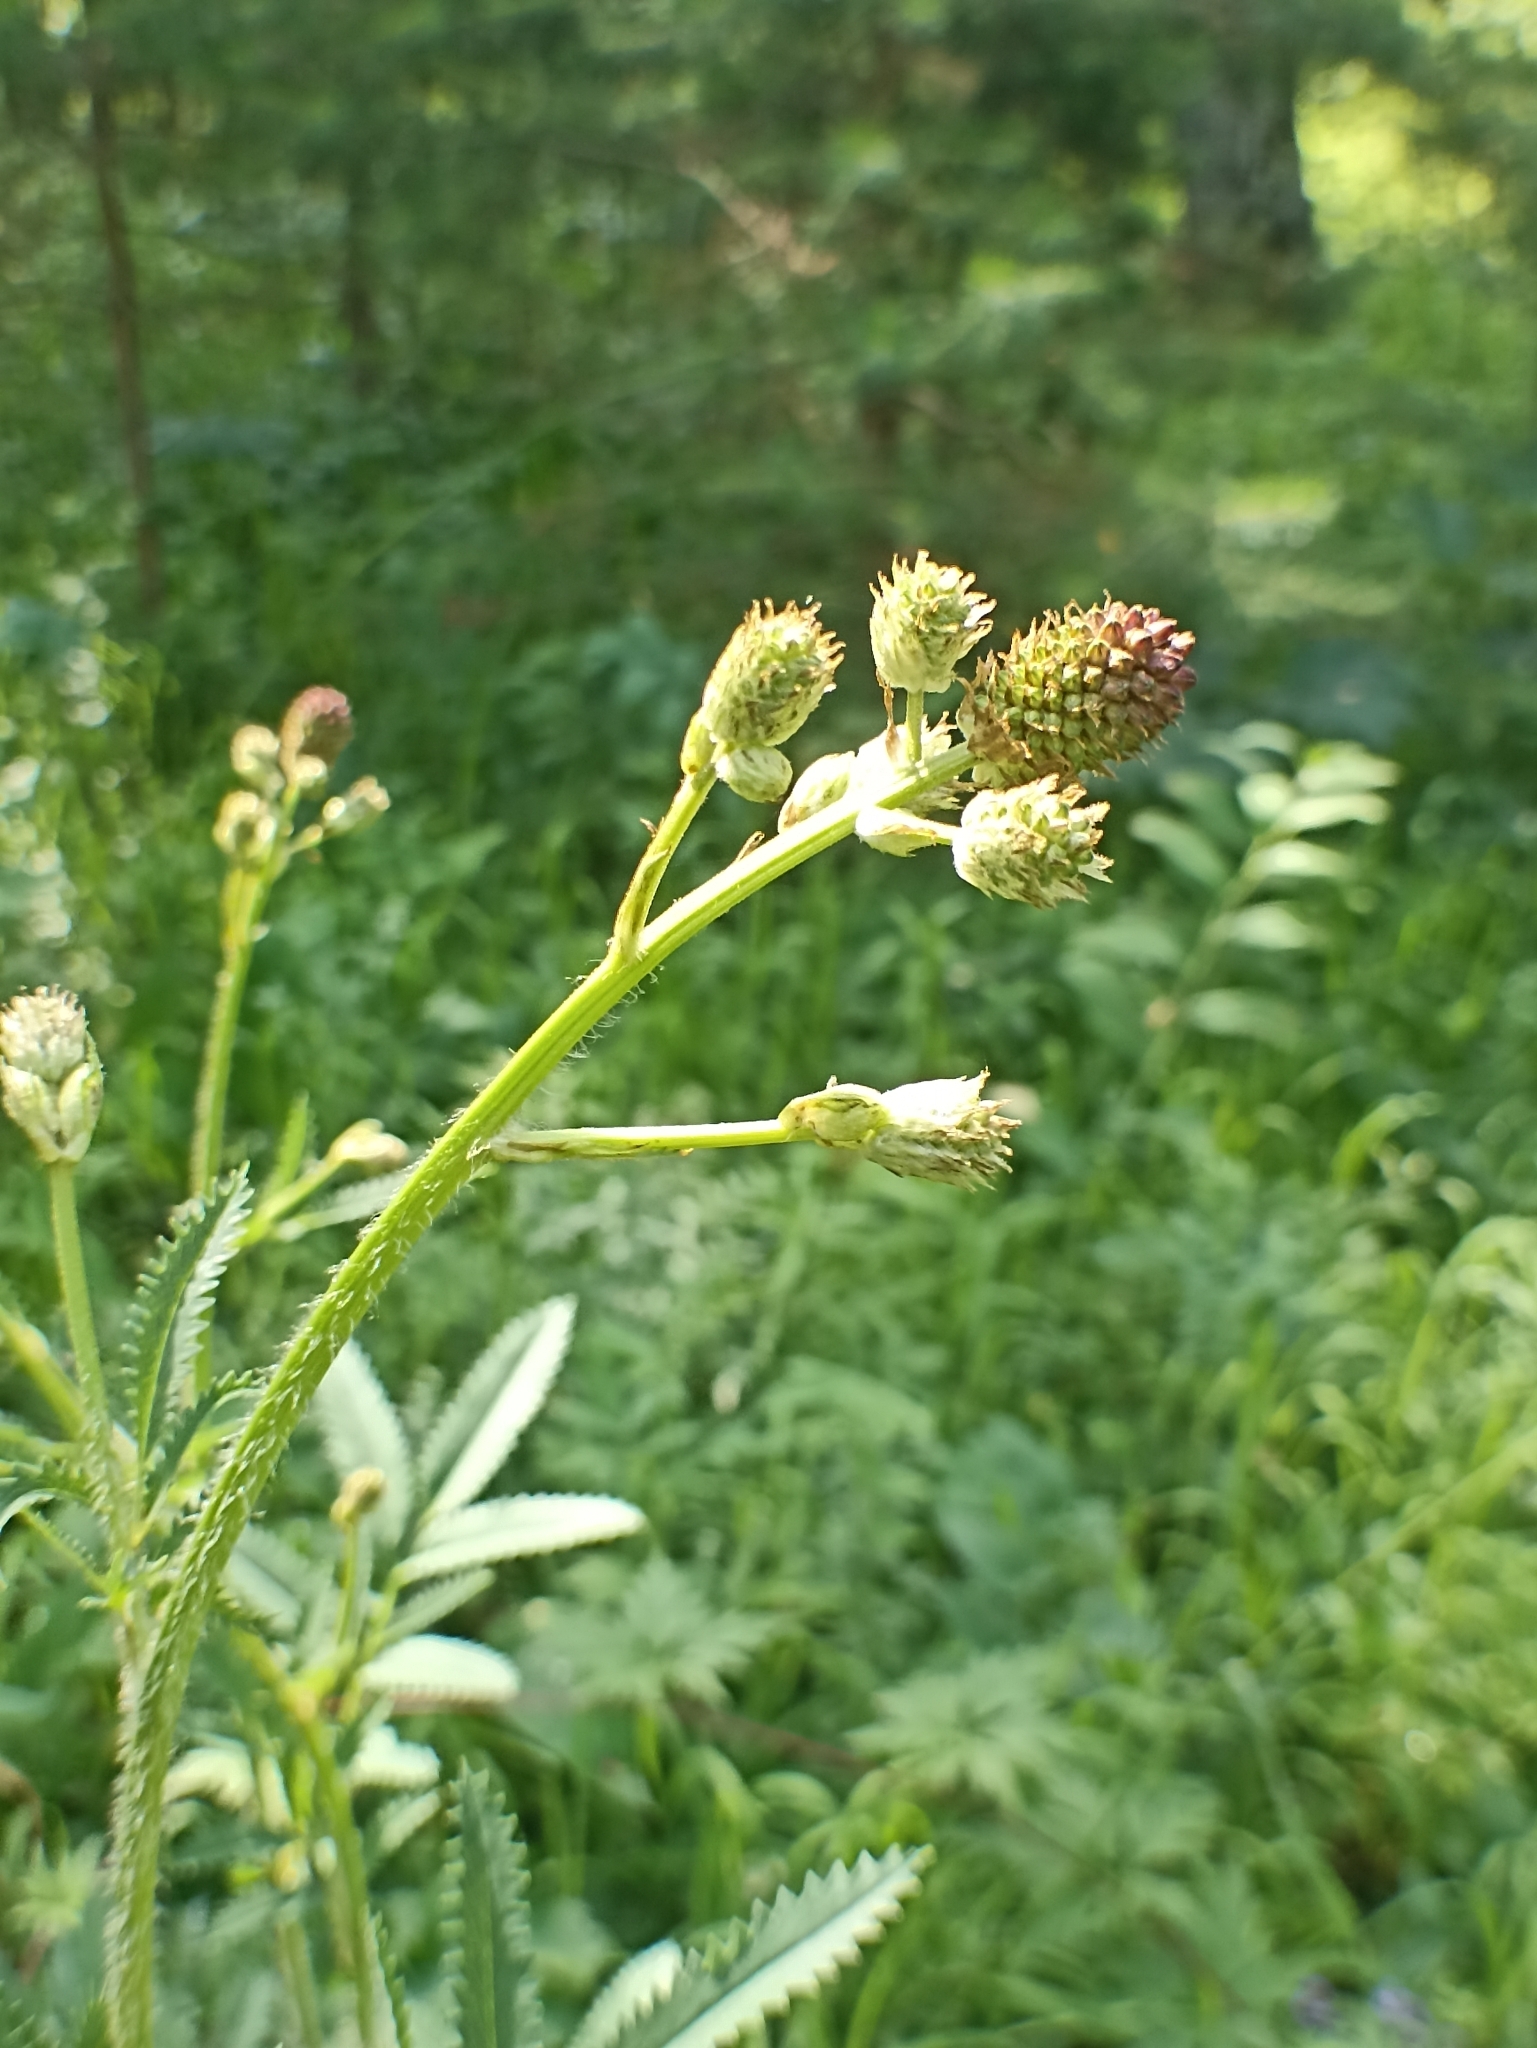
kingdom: Plantae
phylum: Tracheophyta
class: Magnoliopsida
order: Rosales
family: Rosaceae
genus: Sanguisorba
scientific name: Sanguisorba officinalis
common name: Great burnet
